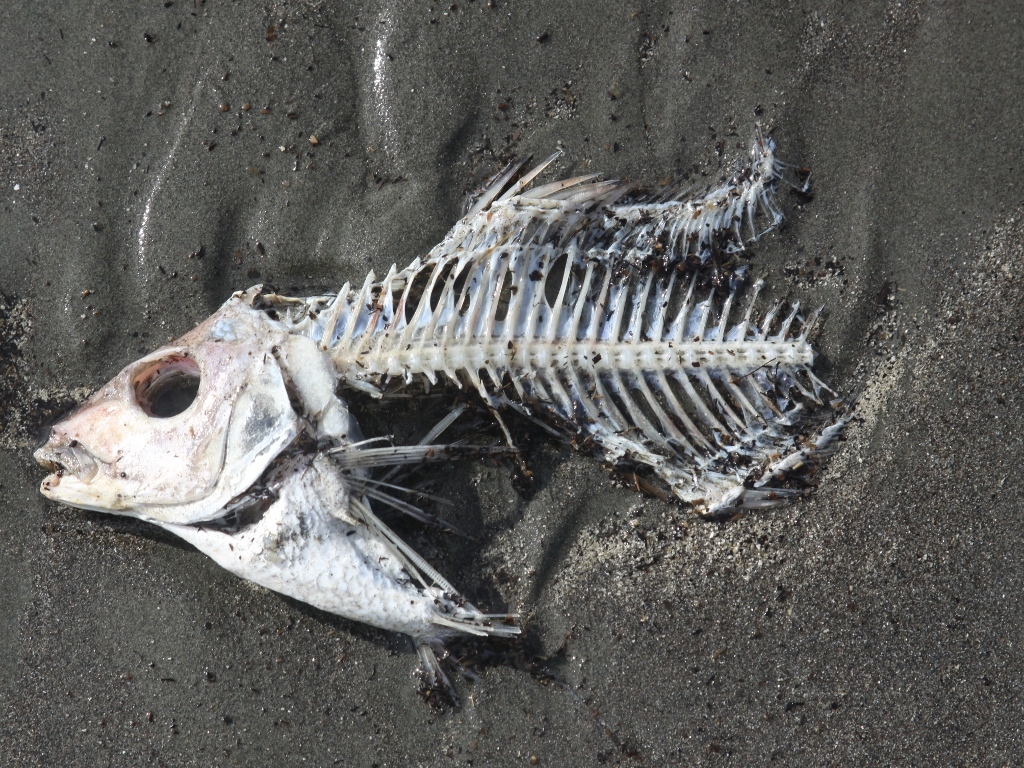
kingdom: Animalia
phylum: Chordata
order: Perciformes
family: Cheilodactylidae
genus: Nemadactylus
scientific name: Nemadactylus macropterus
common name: Tarakihi
